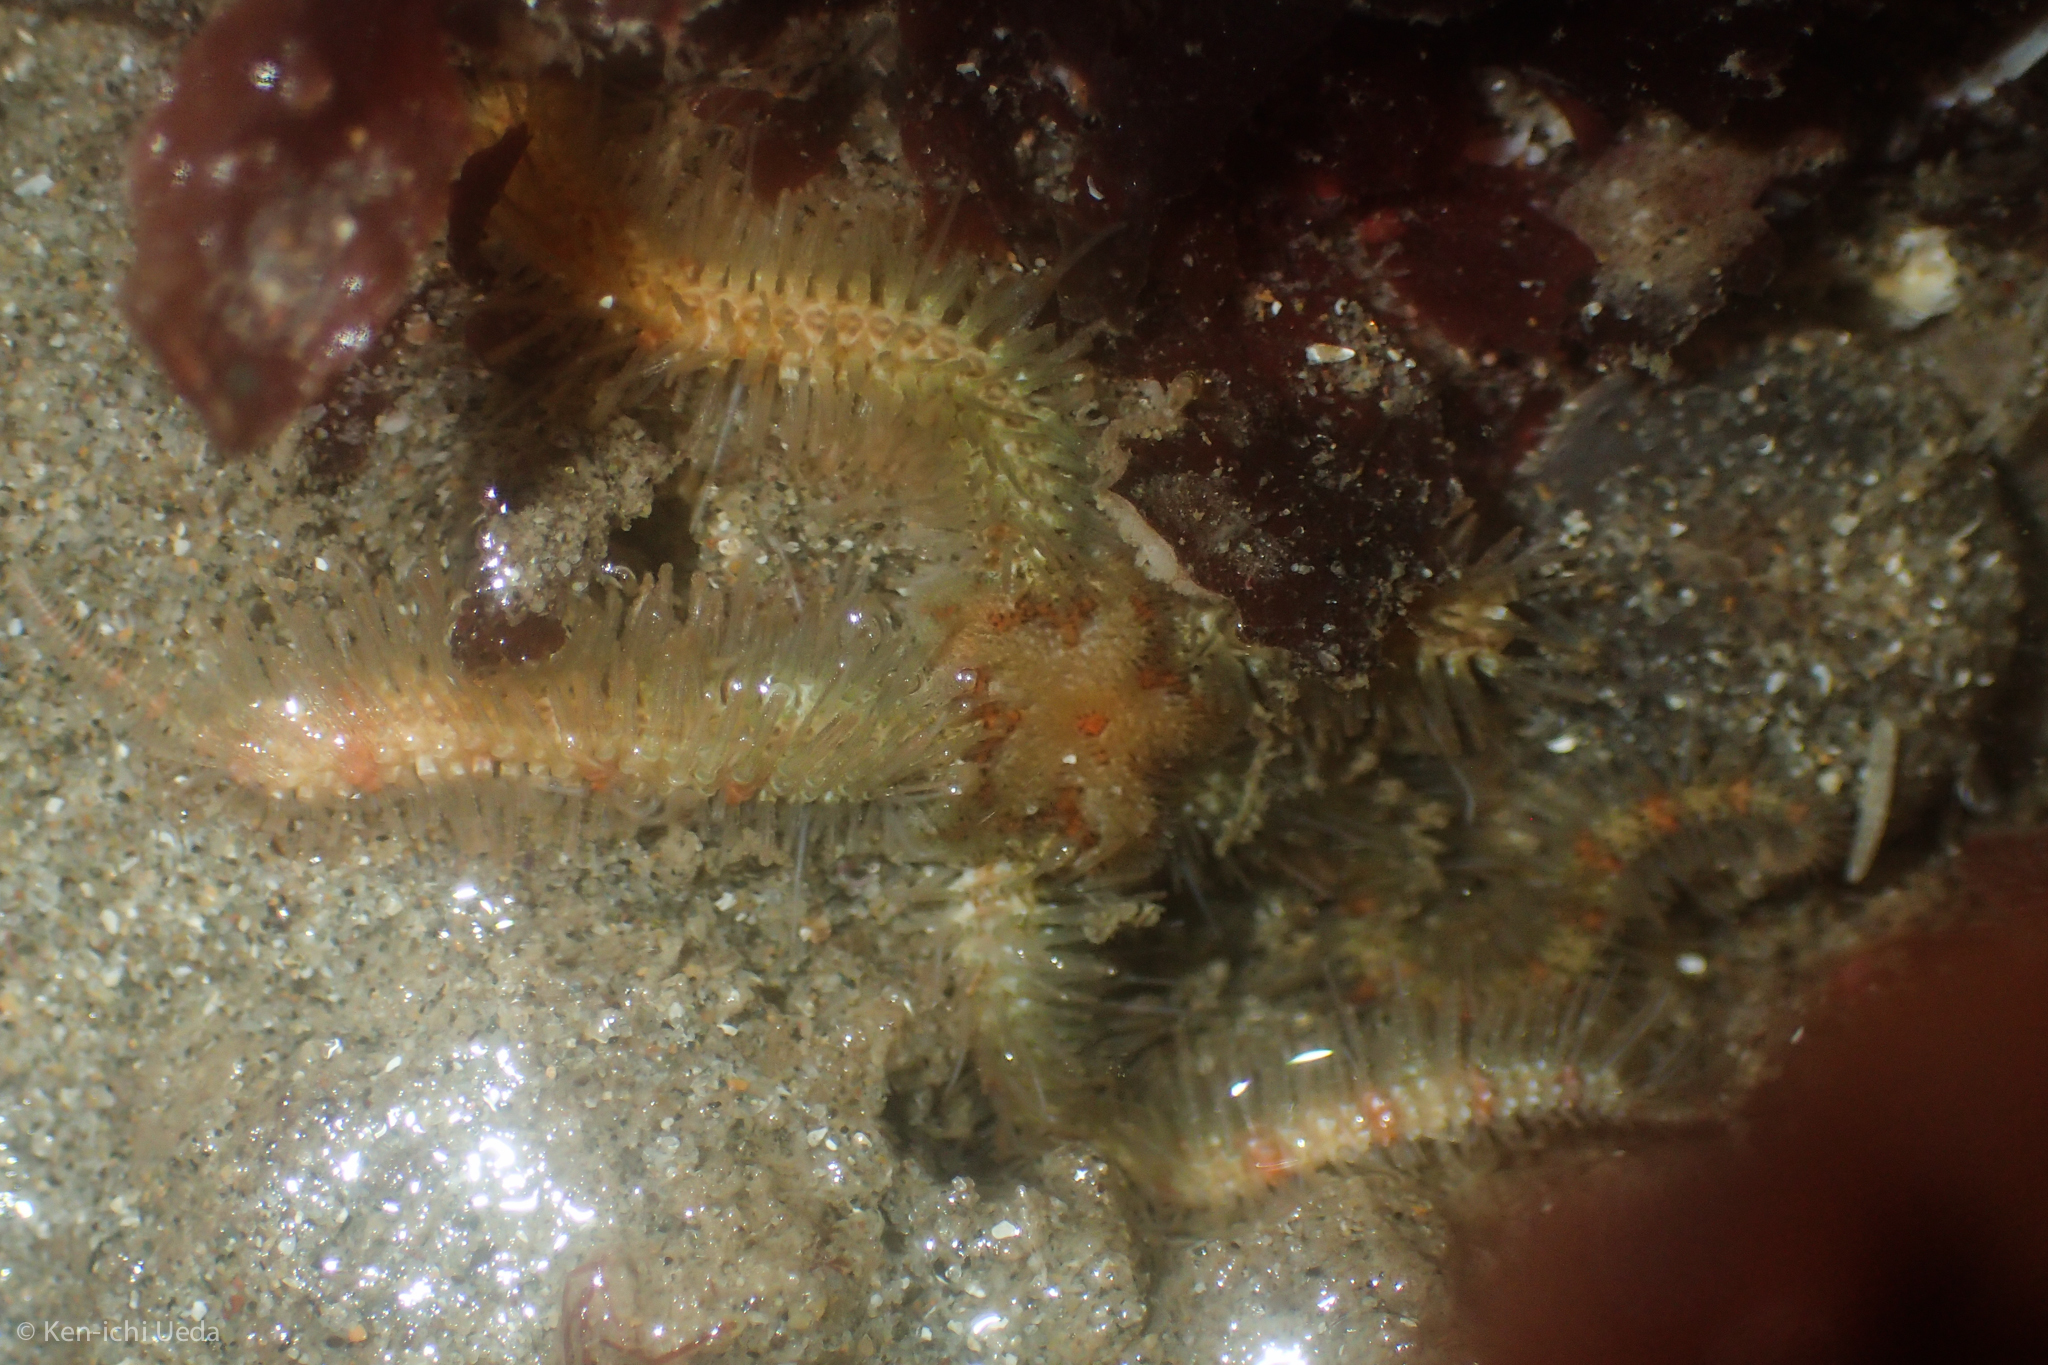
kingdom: Animalia
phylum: Echinodermata
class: Ophiuroidea
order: Amphilepidida
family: Ophiotrichidae
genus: Ophiothrix
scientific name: Ophiothrix spiculata
